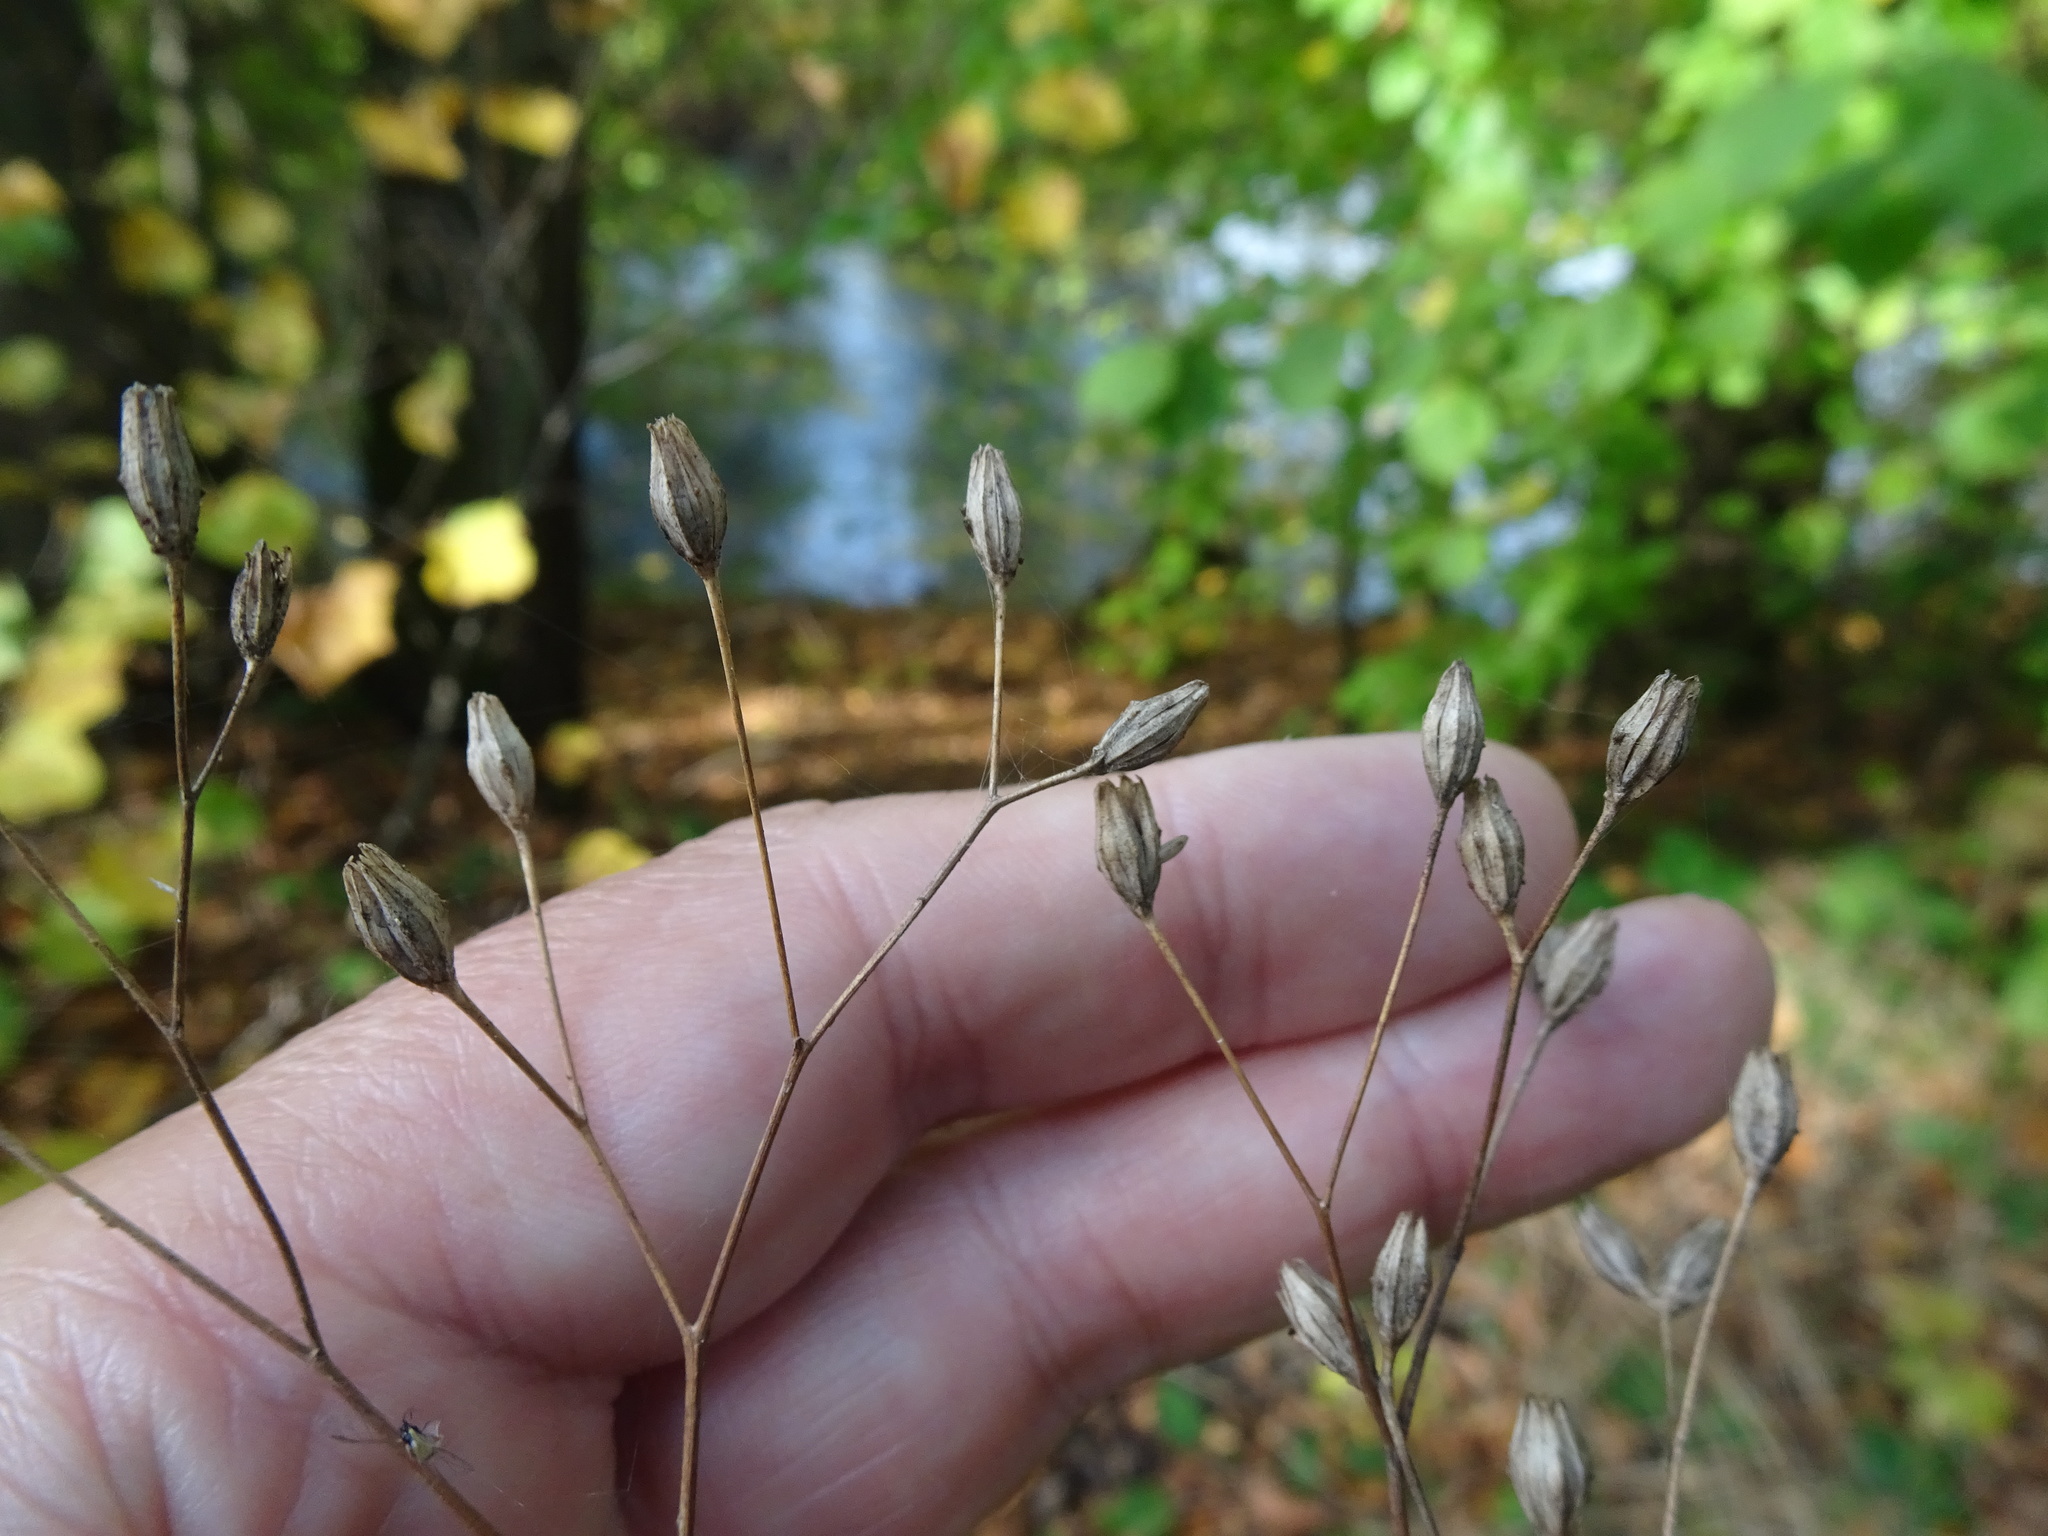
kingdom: Plantae
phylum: Tracheophyta
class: Magnoliopsida
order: Asterales
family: Asteraceae
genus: Lapsana
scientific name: Lapsana communis
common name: Nipplewort
